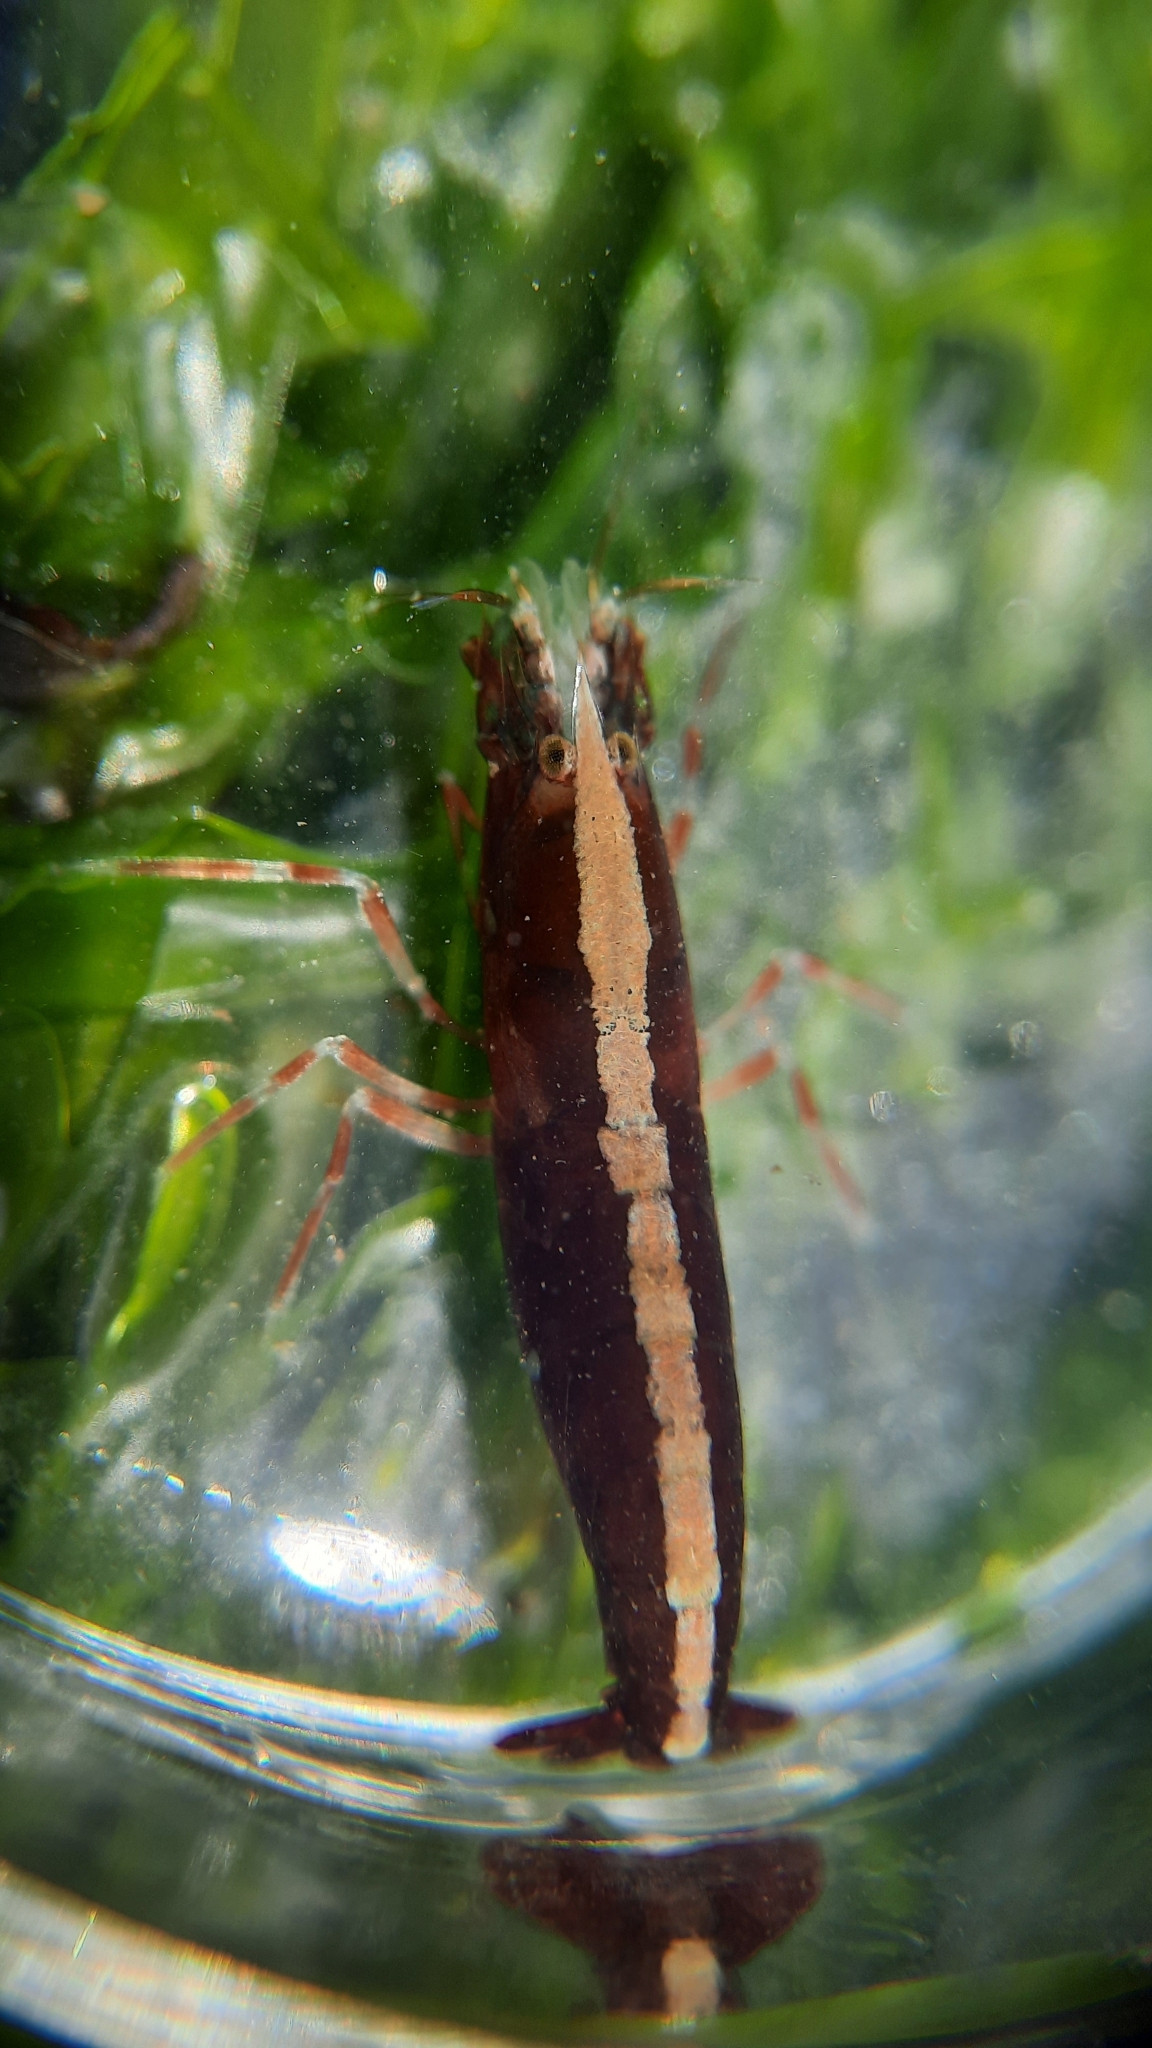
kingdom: Animalia
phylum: Arthropoda
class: Malacostraca
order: Decapoda
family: Alpheidae
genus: Athanas
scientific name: Athanas nitescens
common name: Hooded shrimp
